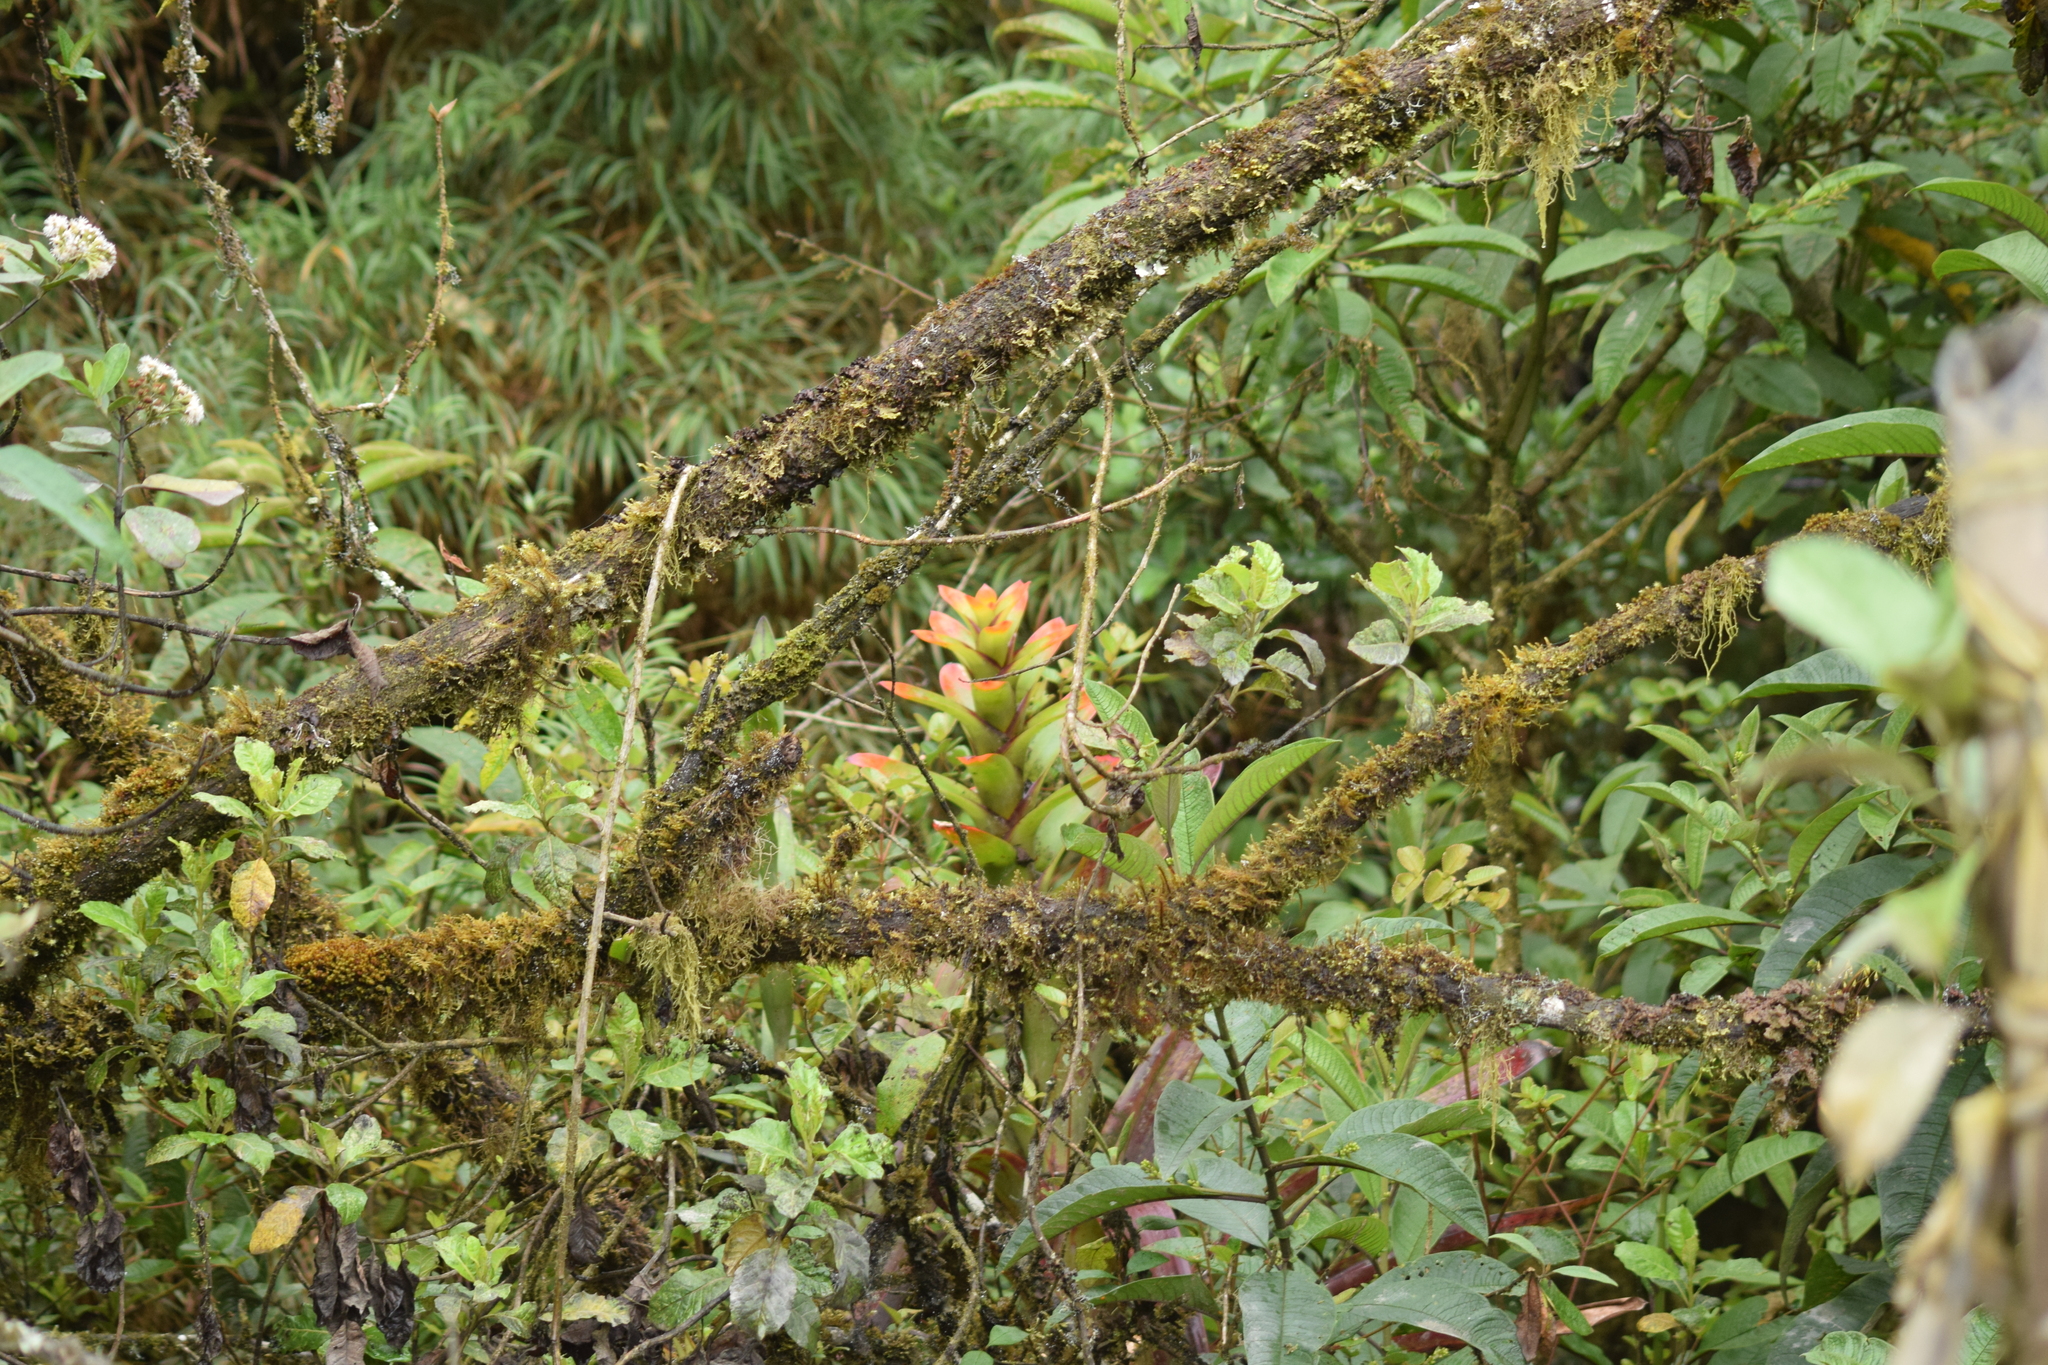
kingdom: Plantae
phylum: Tracheophyta
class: Liliopsida
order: Poales
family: Bromeliaceae
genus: Guzmania
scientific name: Guzmania gloriosa
